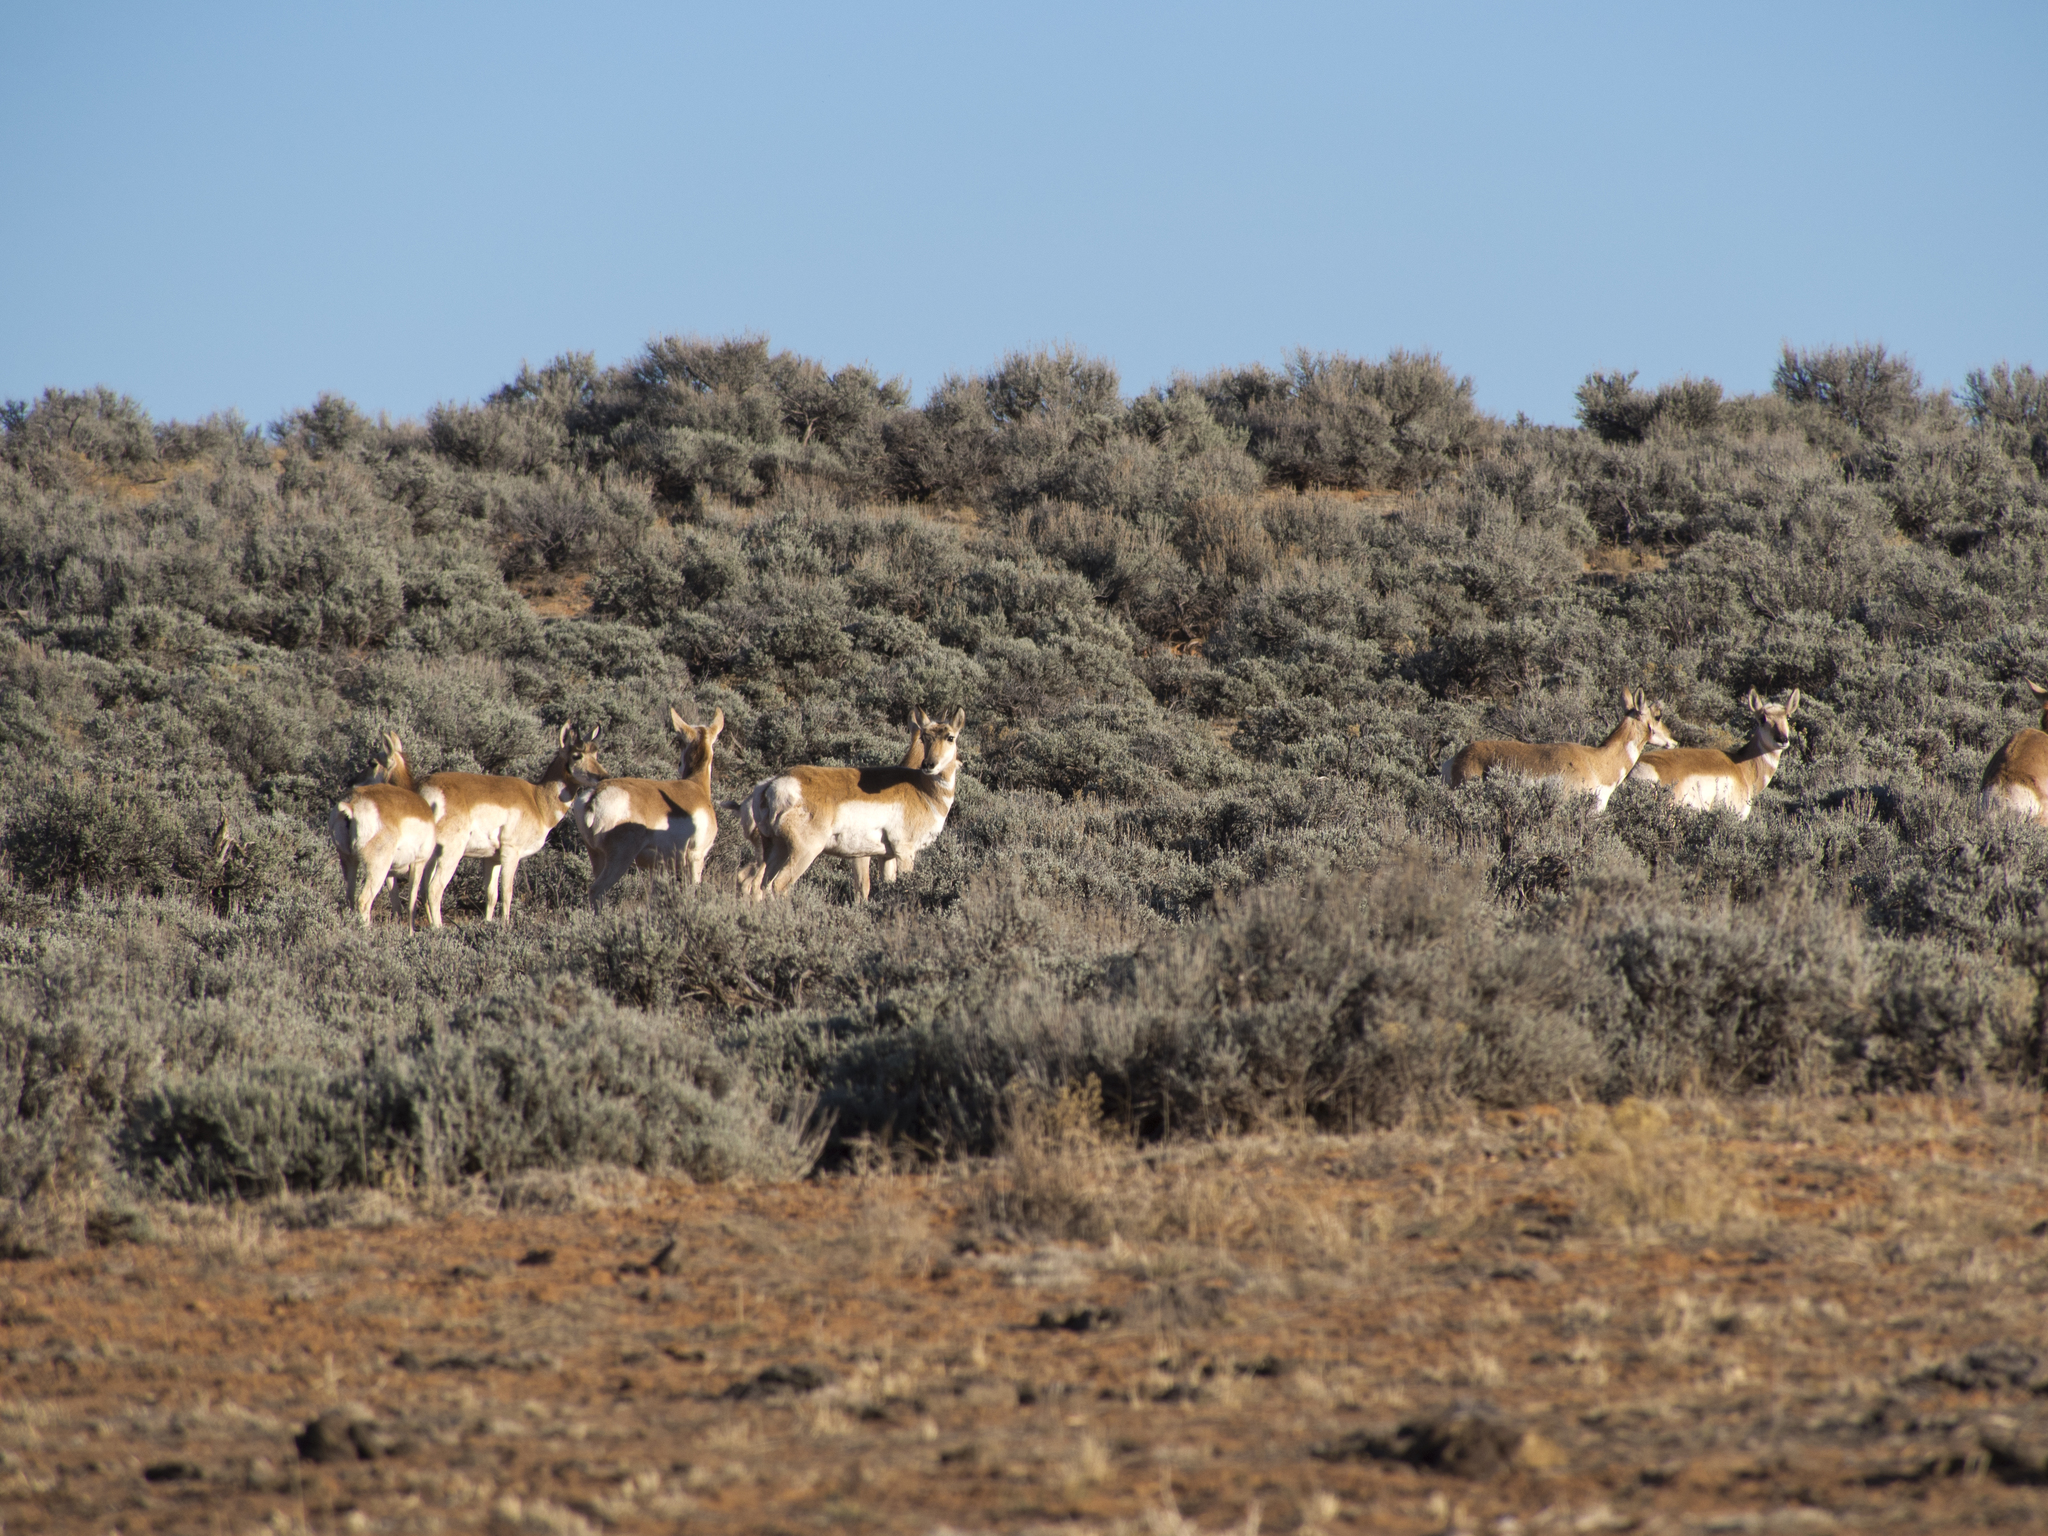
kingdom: Animalia
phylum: Chordata
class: Mammalia
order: Artiodactyla
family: Antilocapridae
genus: Antilocapra
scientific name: Antilocapra americana
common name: Pronghorn
